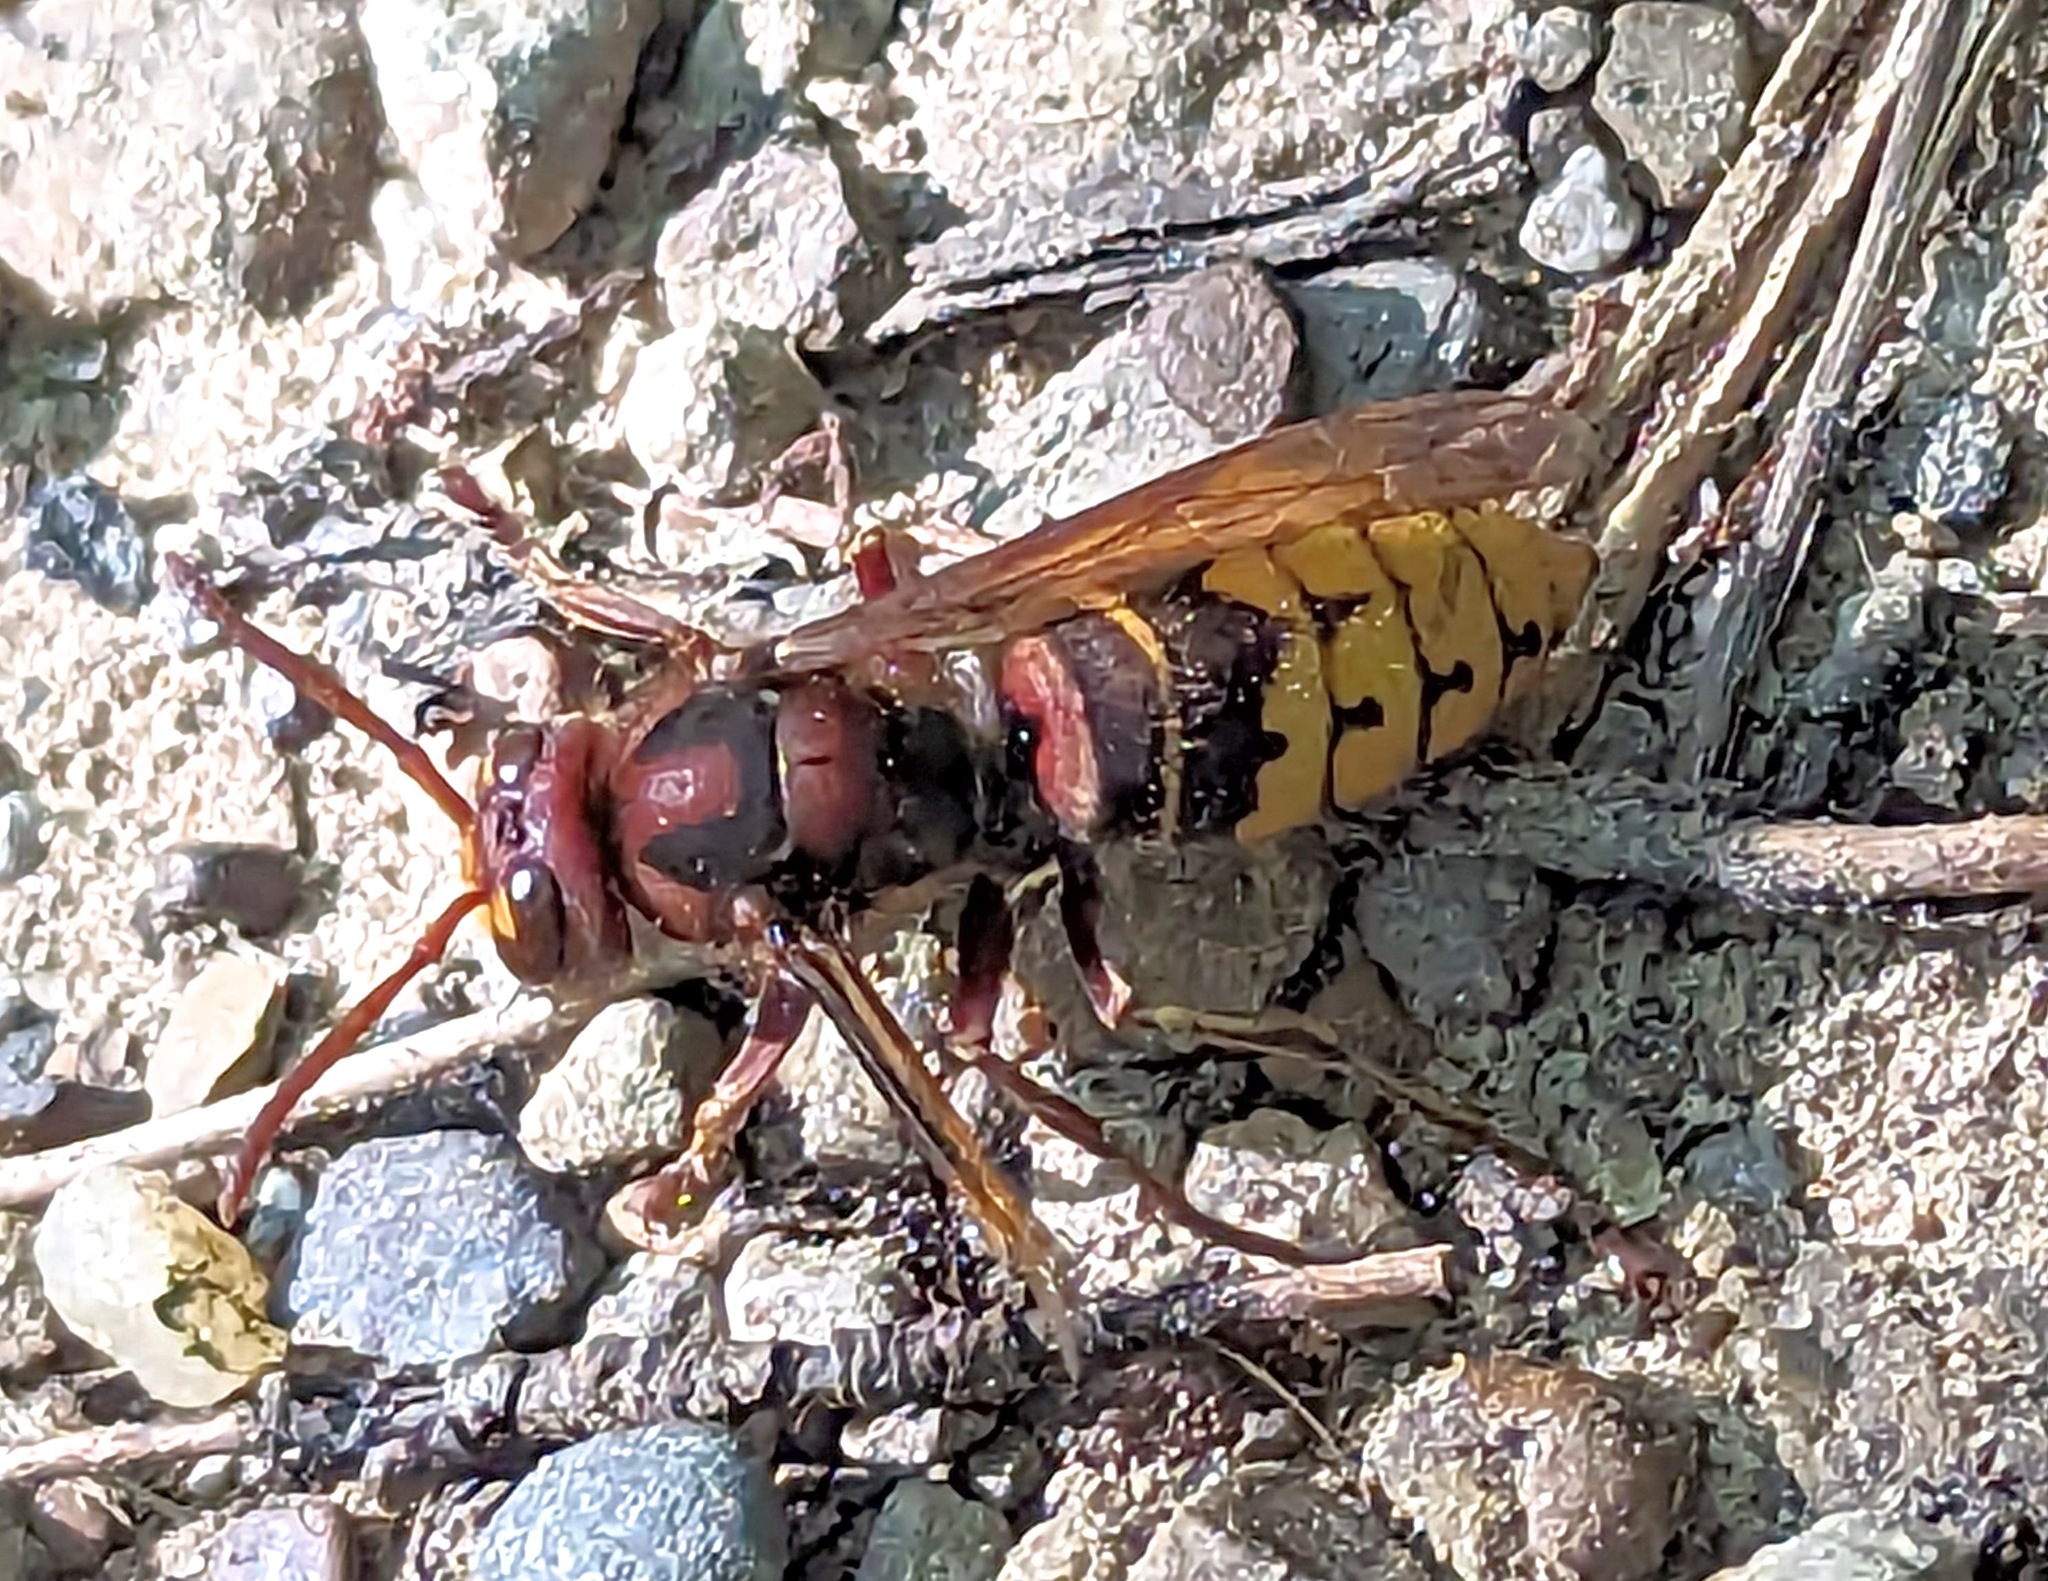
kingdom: Animalia
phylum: Arthropoda
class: Insecta
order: Hymenoptera
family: Vespidae
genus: Vespa
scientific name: Vespa crabro
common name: Hornet
